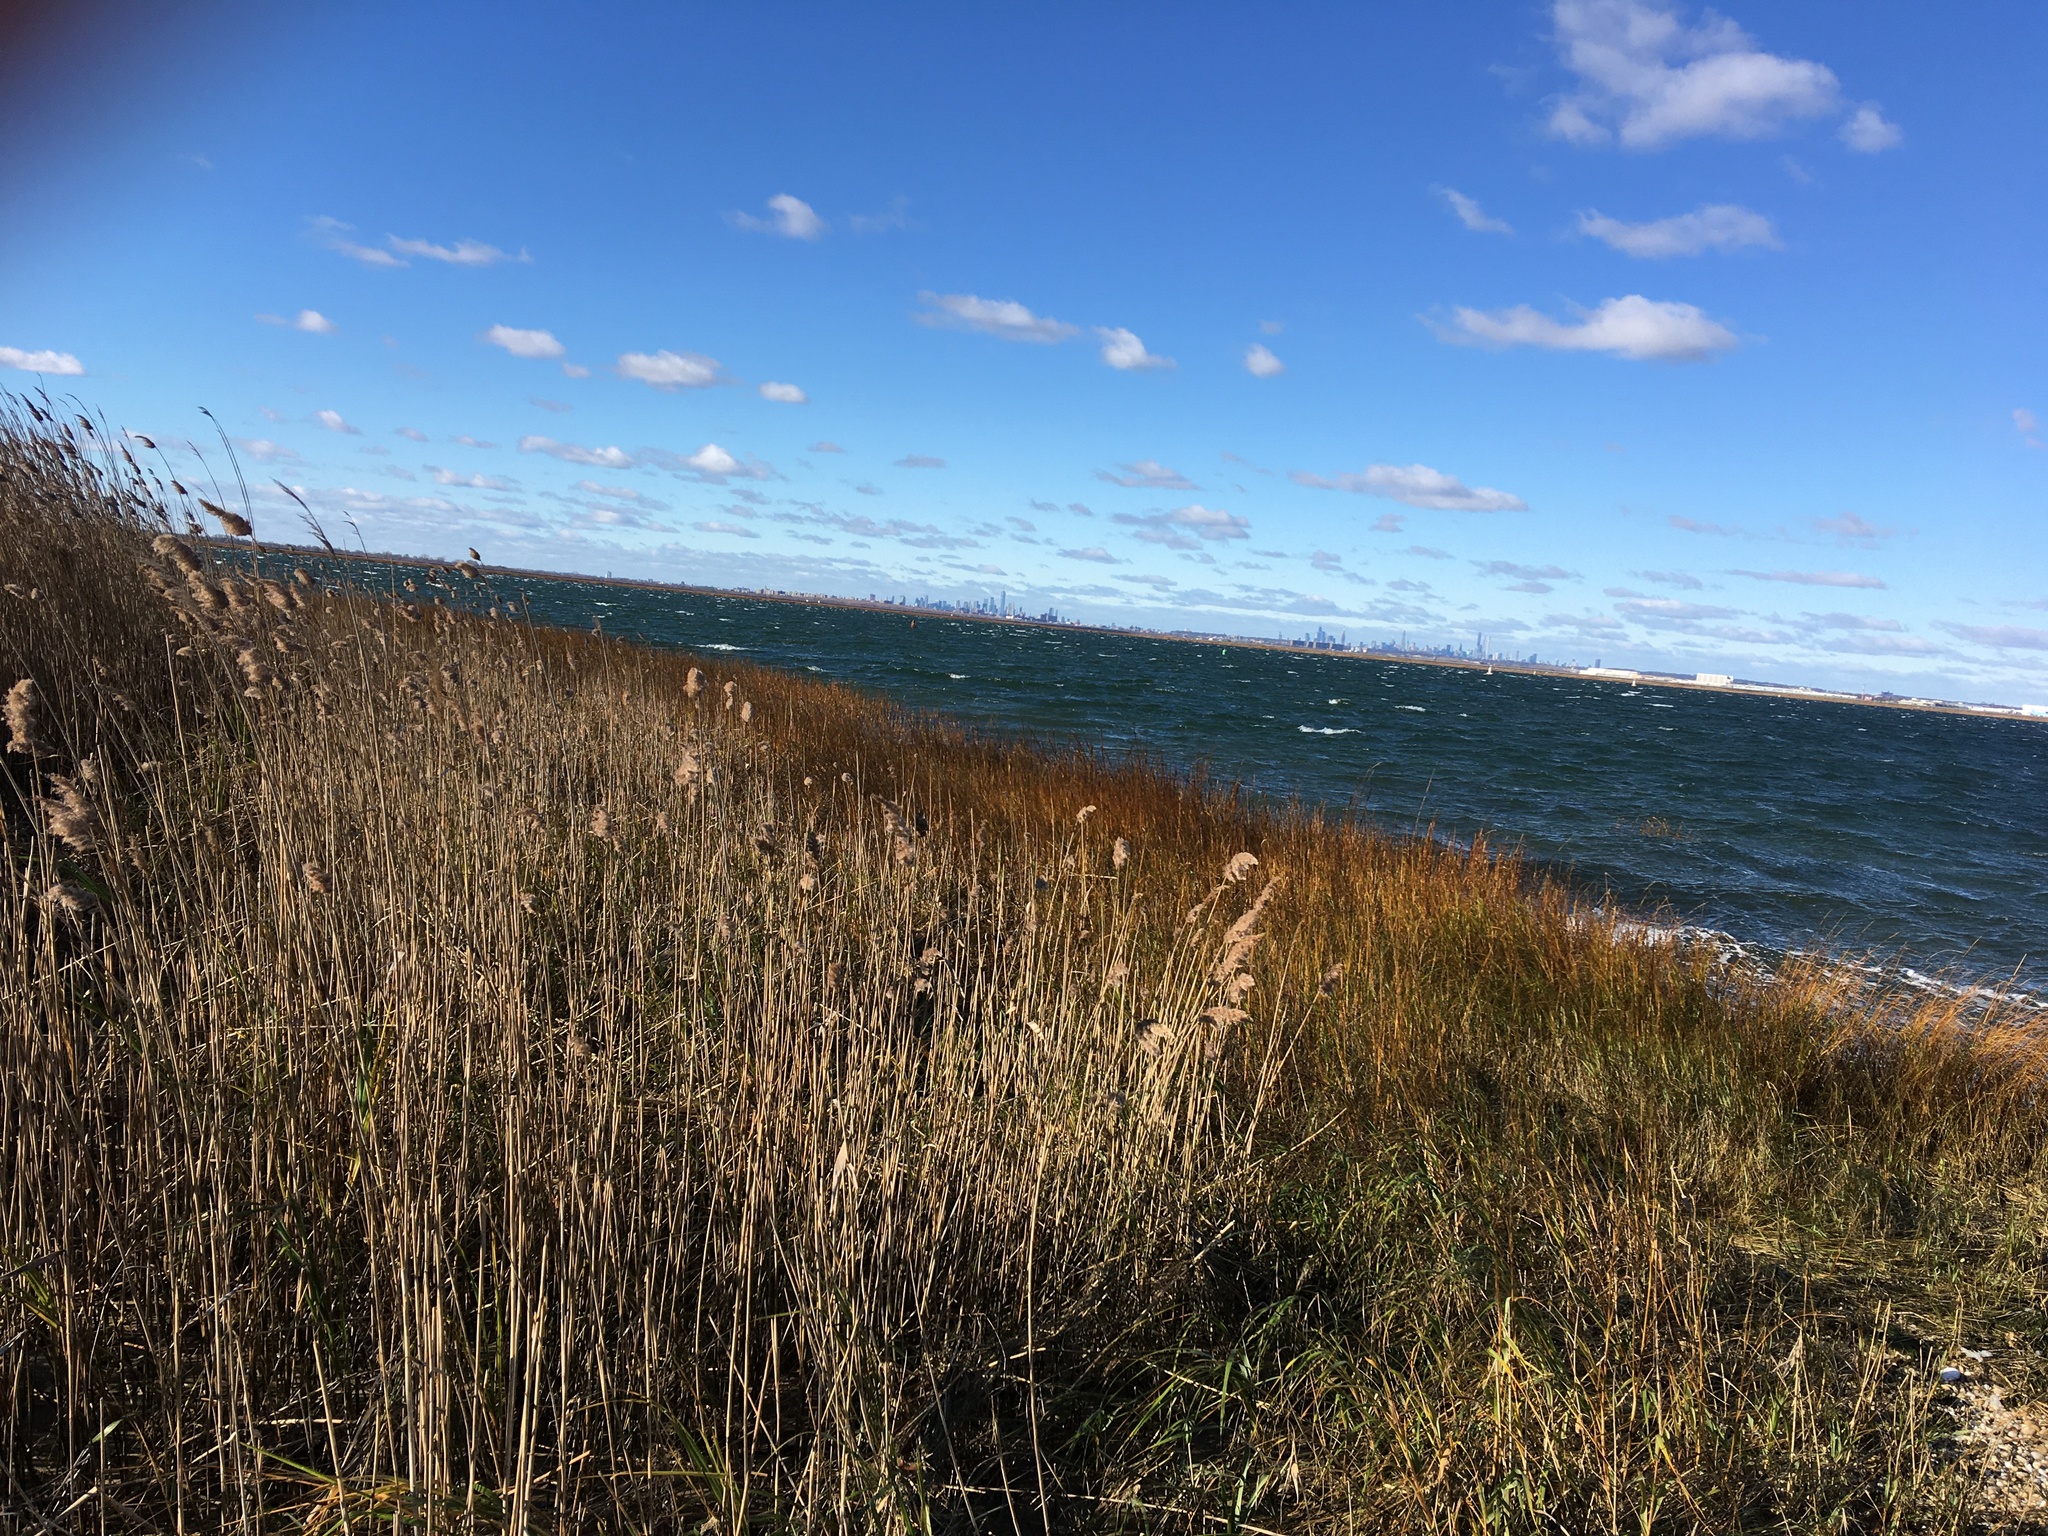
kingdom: Plantae
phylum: Tracheophyta
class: Liliopsida
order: Poales
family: Poaceae
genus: Sporobolus
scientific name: Sporobolus alterniflorus
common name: Atlantic cordgrass
